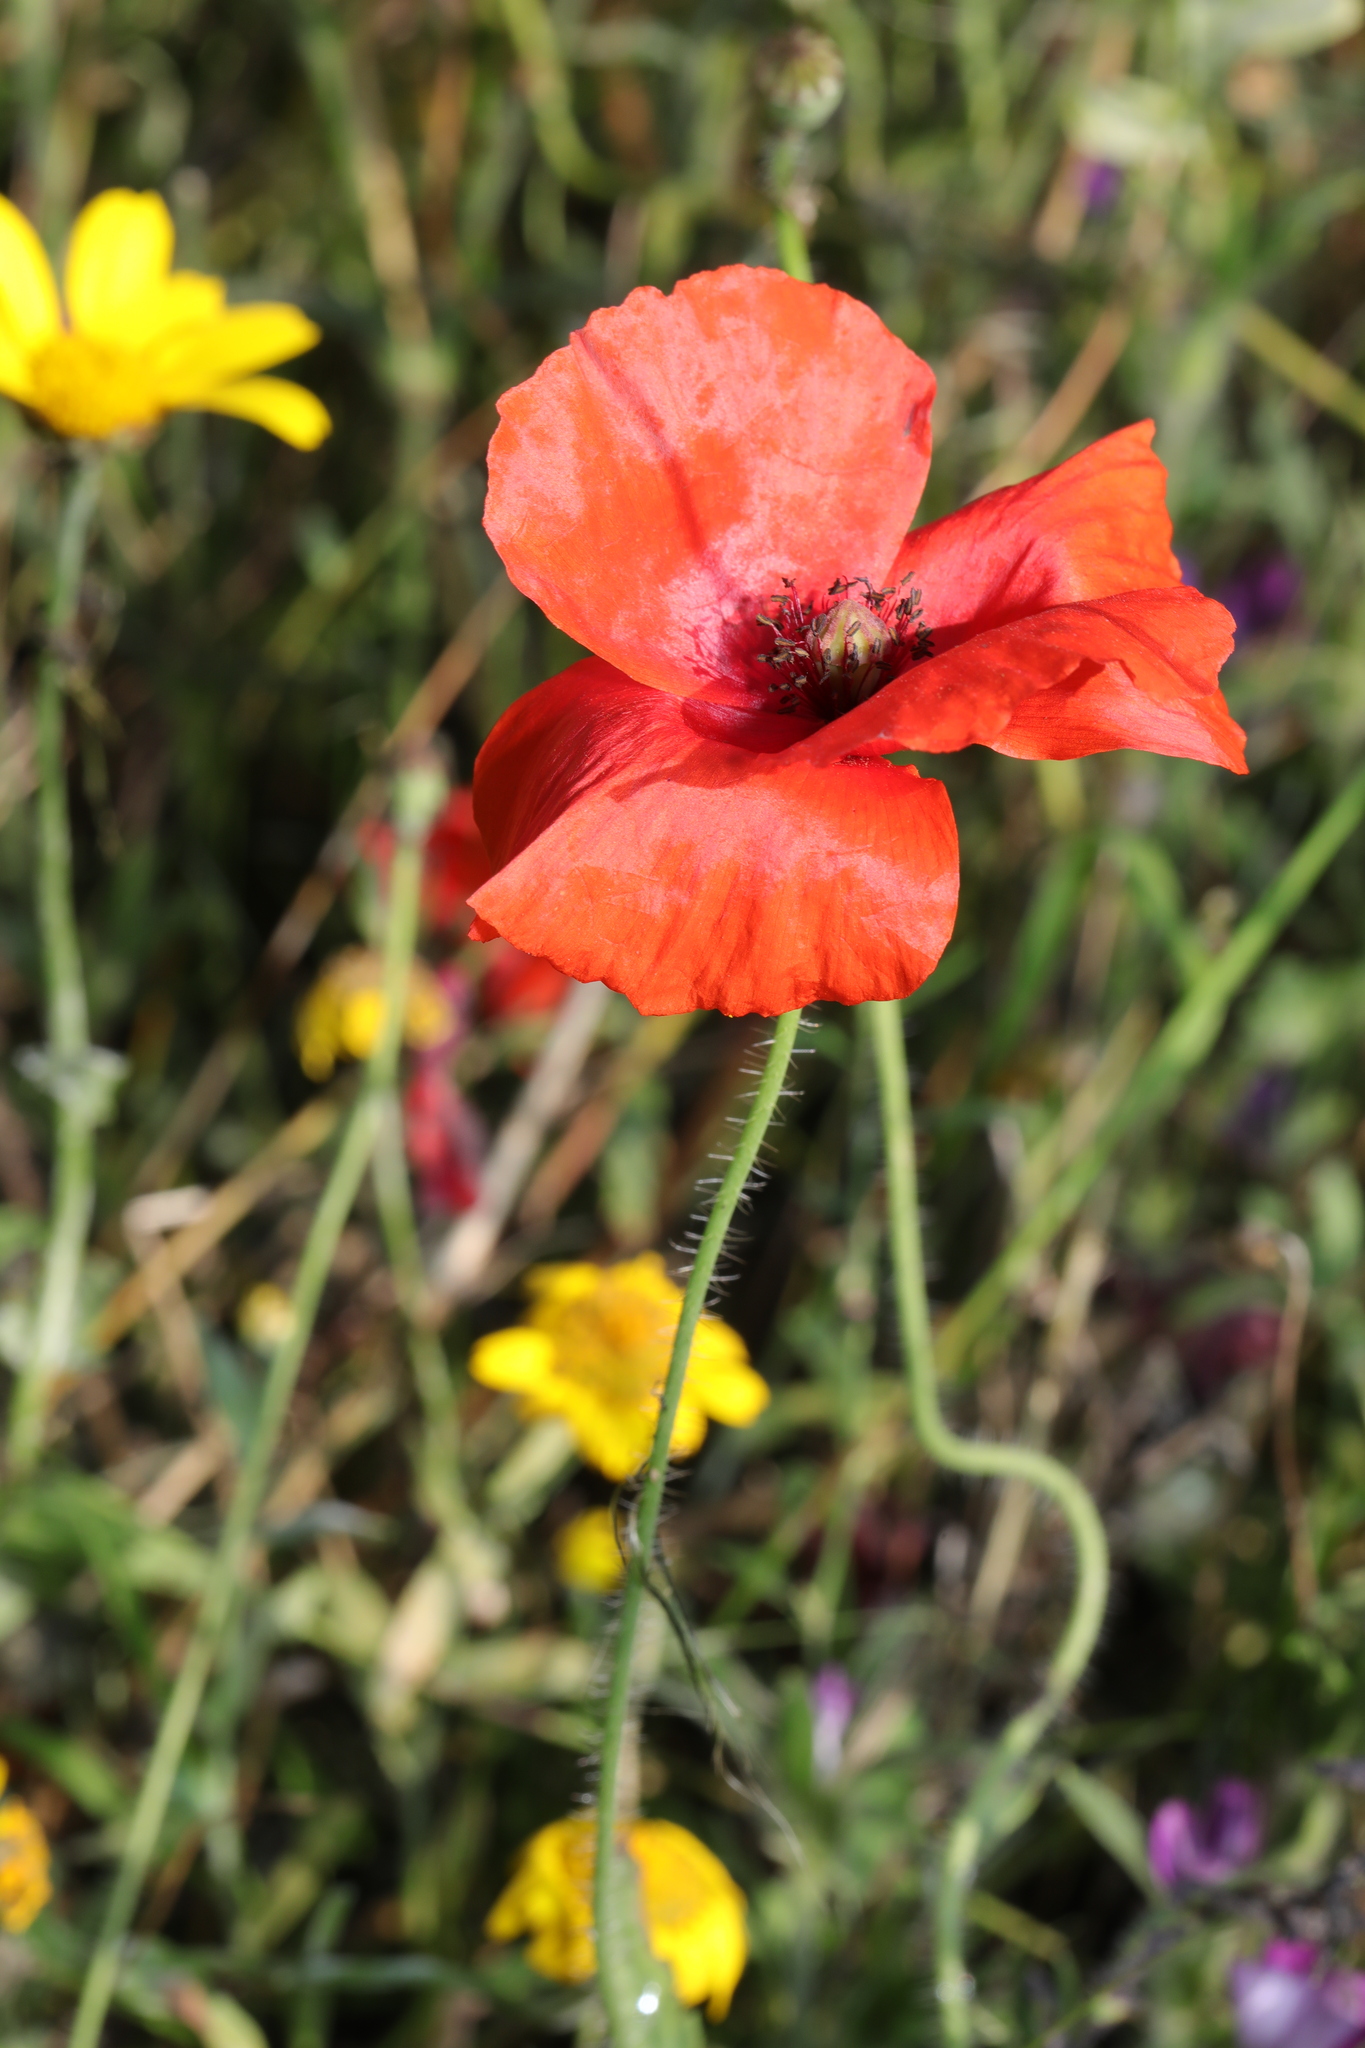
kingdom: Plantae
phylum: Tracheophyta
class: Magnoliopsida
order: Ranunculales
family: Papaveraceae
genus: Papaver
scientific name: Papaver rhoeas
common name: Corn poppy
